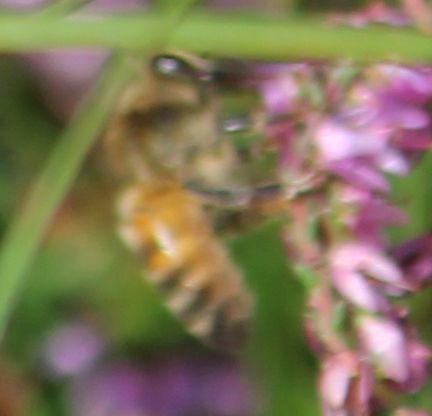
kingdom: Animalia
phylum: Arthropoda
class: Insecta
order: Hymenoptera
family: Apidae
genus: Apis
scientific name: Apis mellifera
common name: Honey bee
